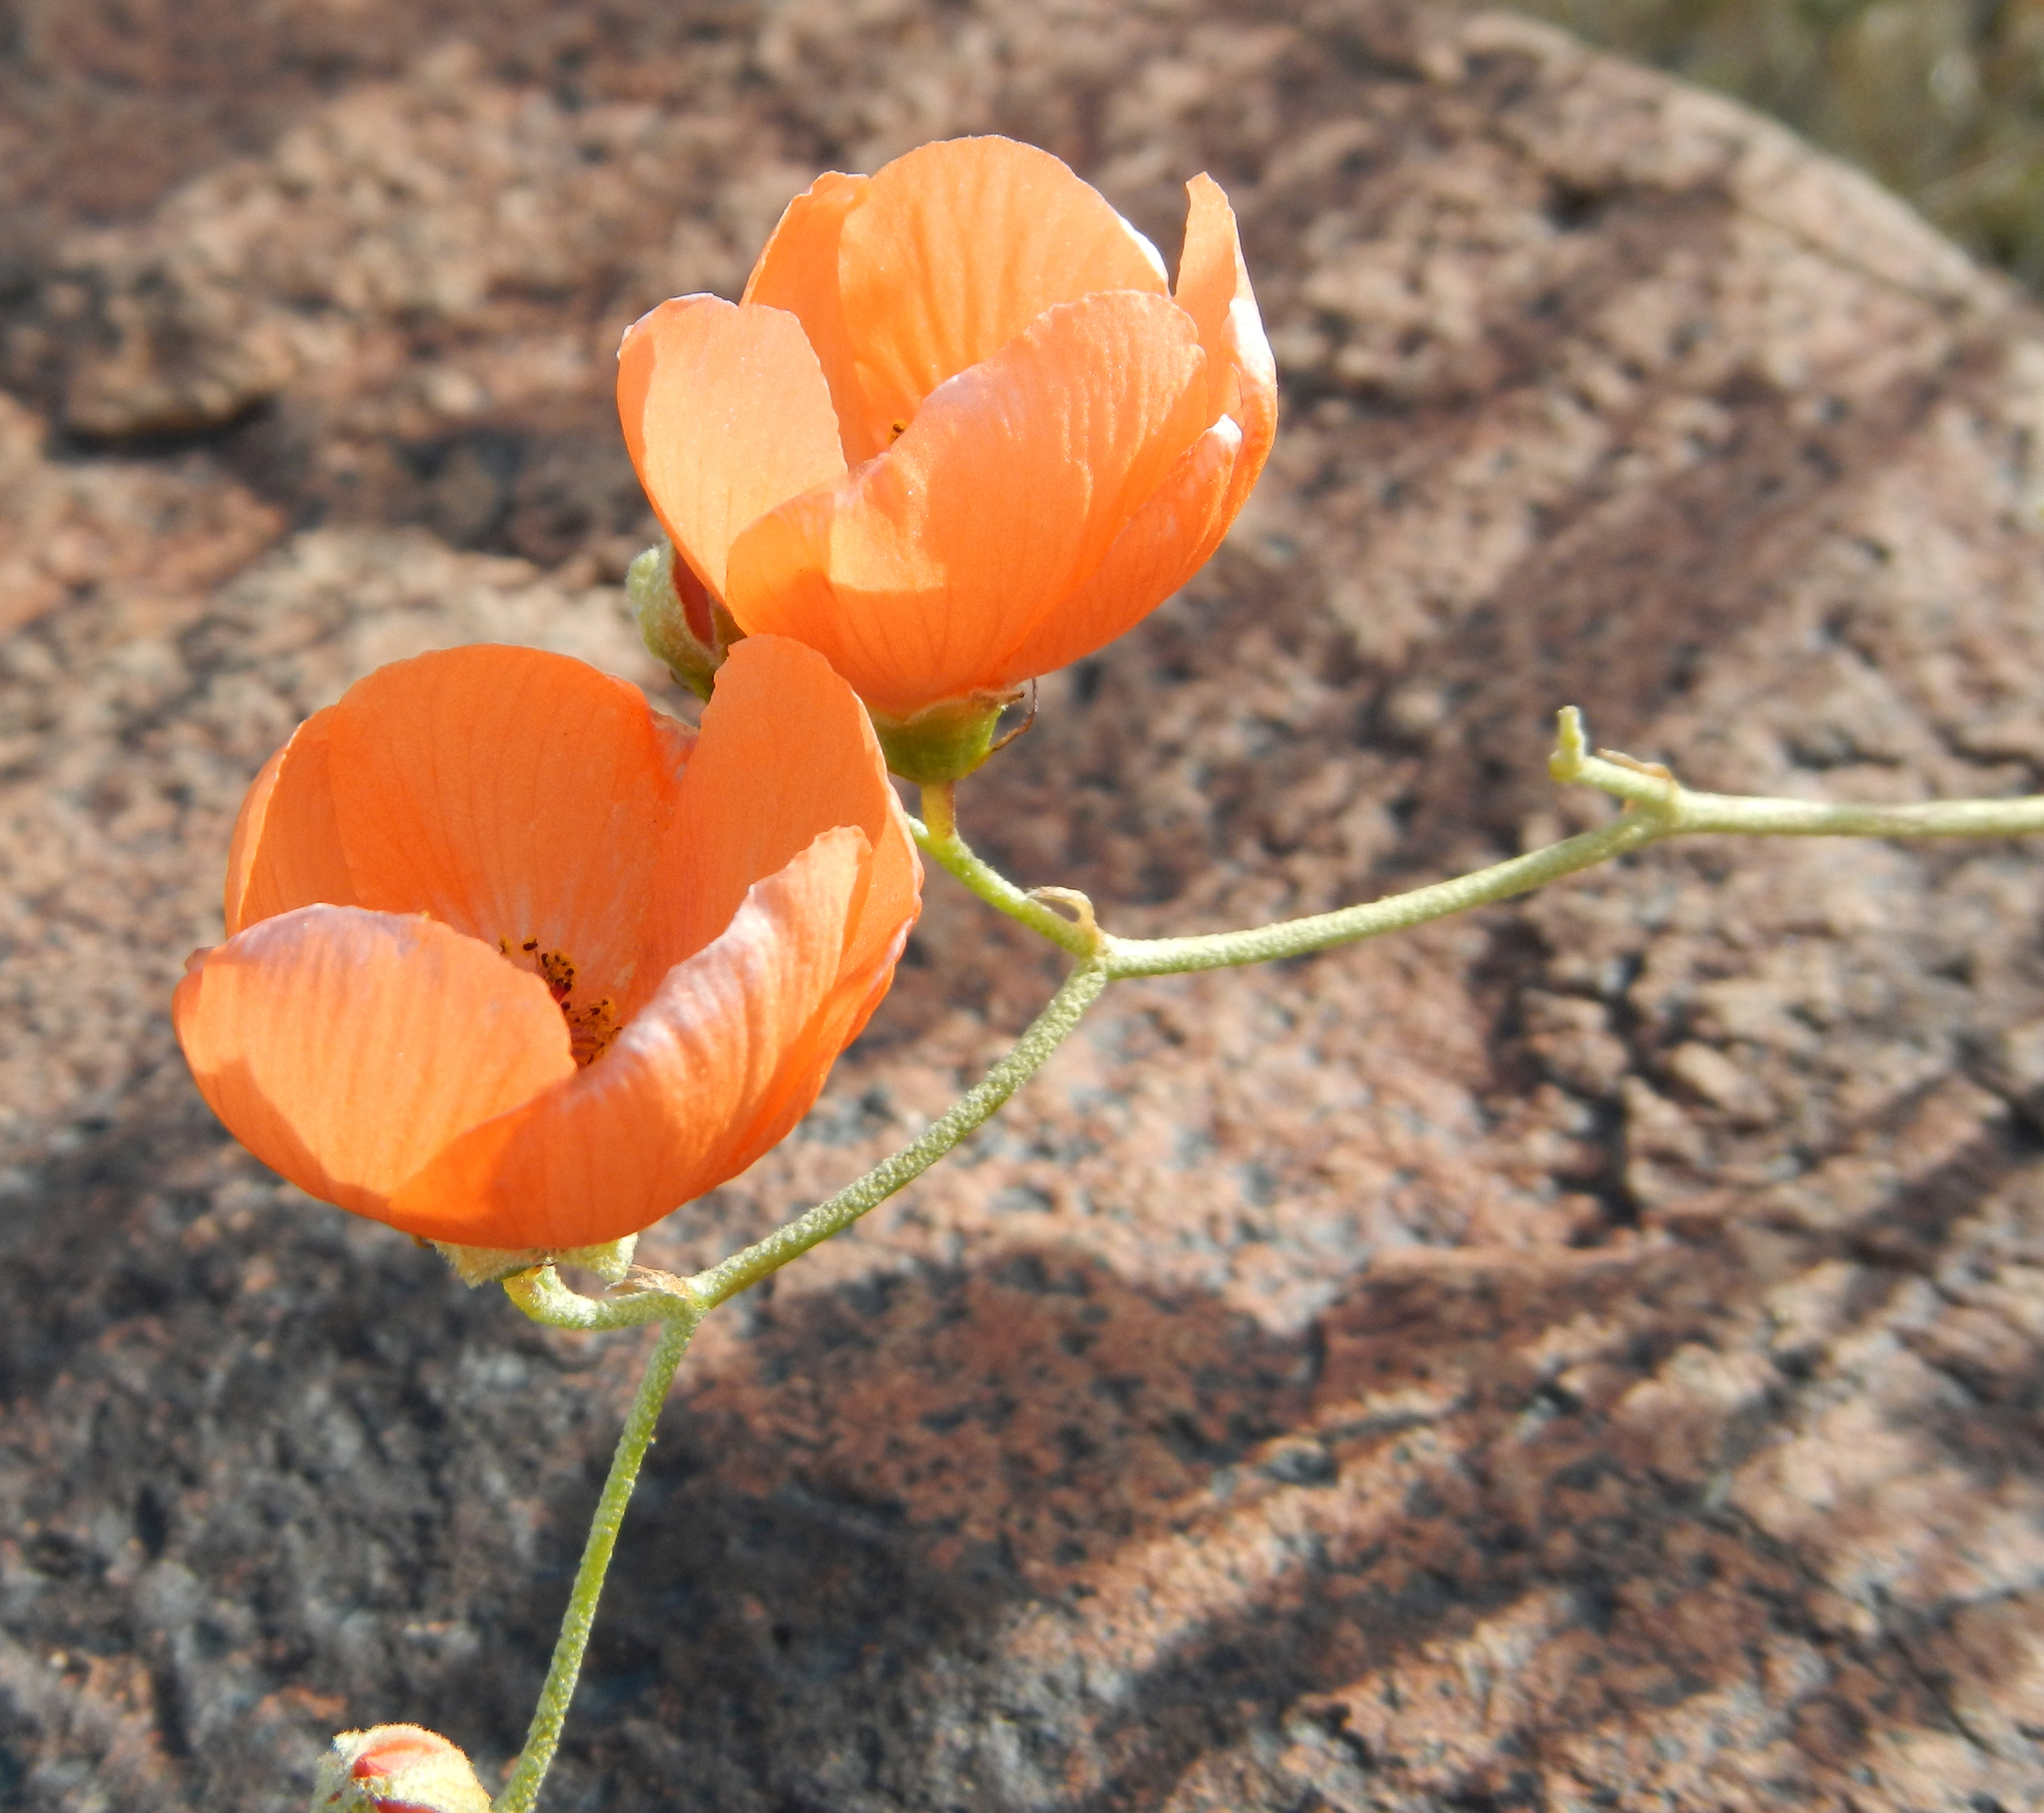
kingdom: Plantae
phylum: Tracheophyta
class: Magnoliopsida
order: Malvales
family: Malvaceae
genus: Sphaeralcea
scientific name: Sphaeralcea ambigua
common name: Apricot globe-mallow
